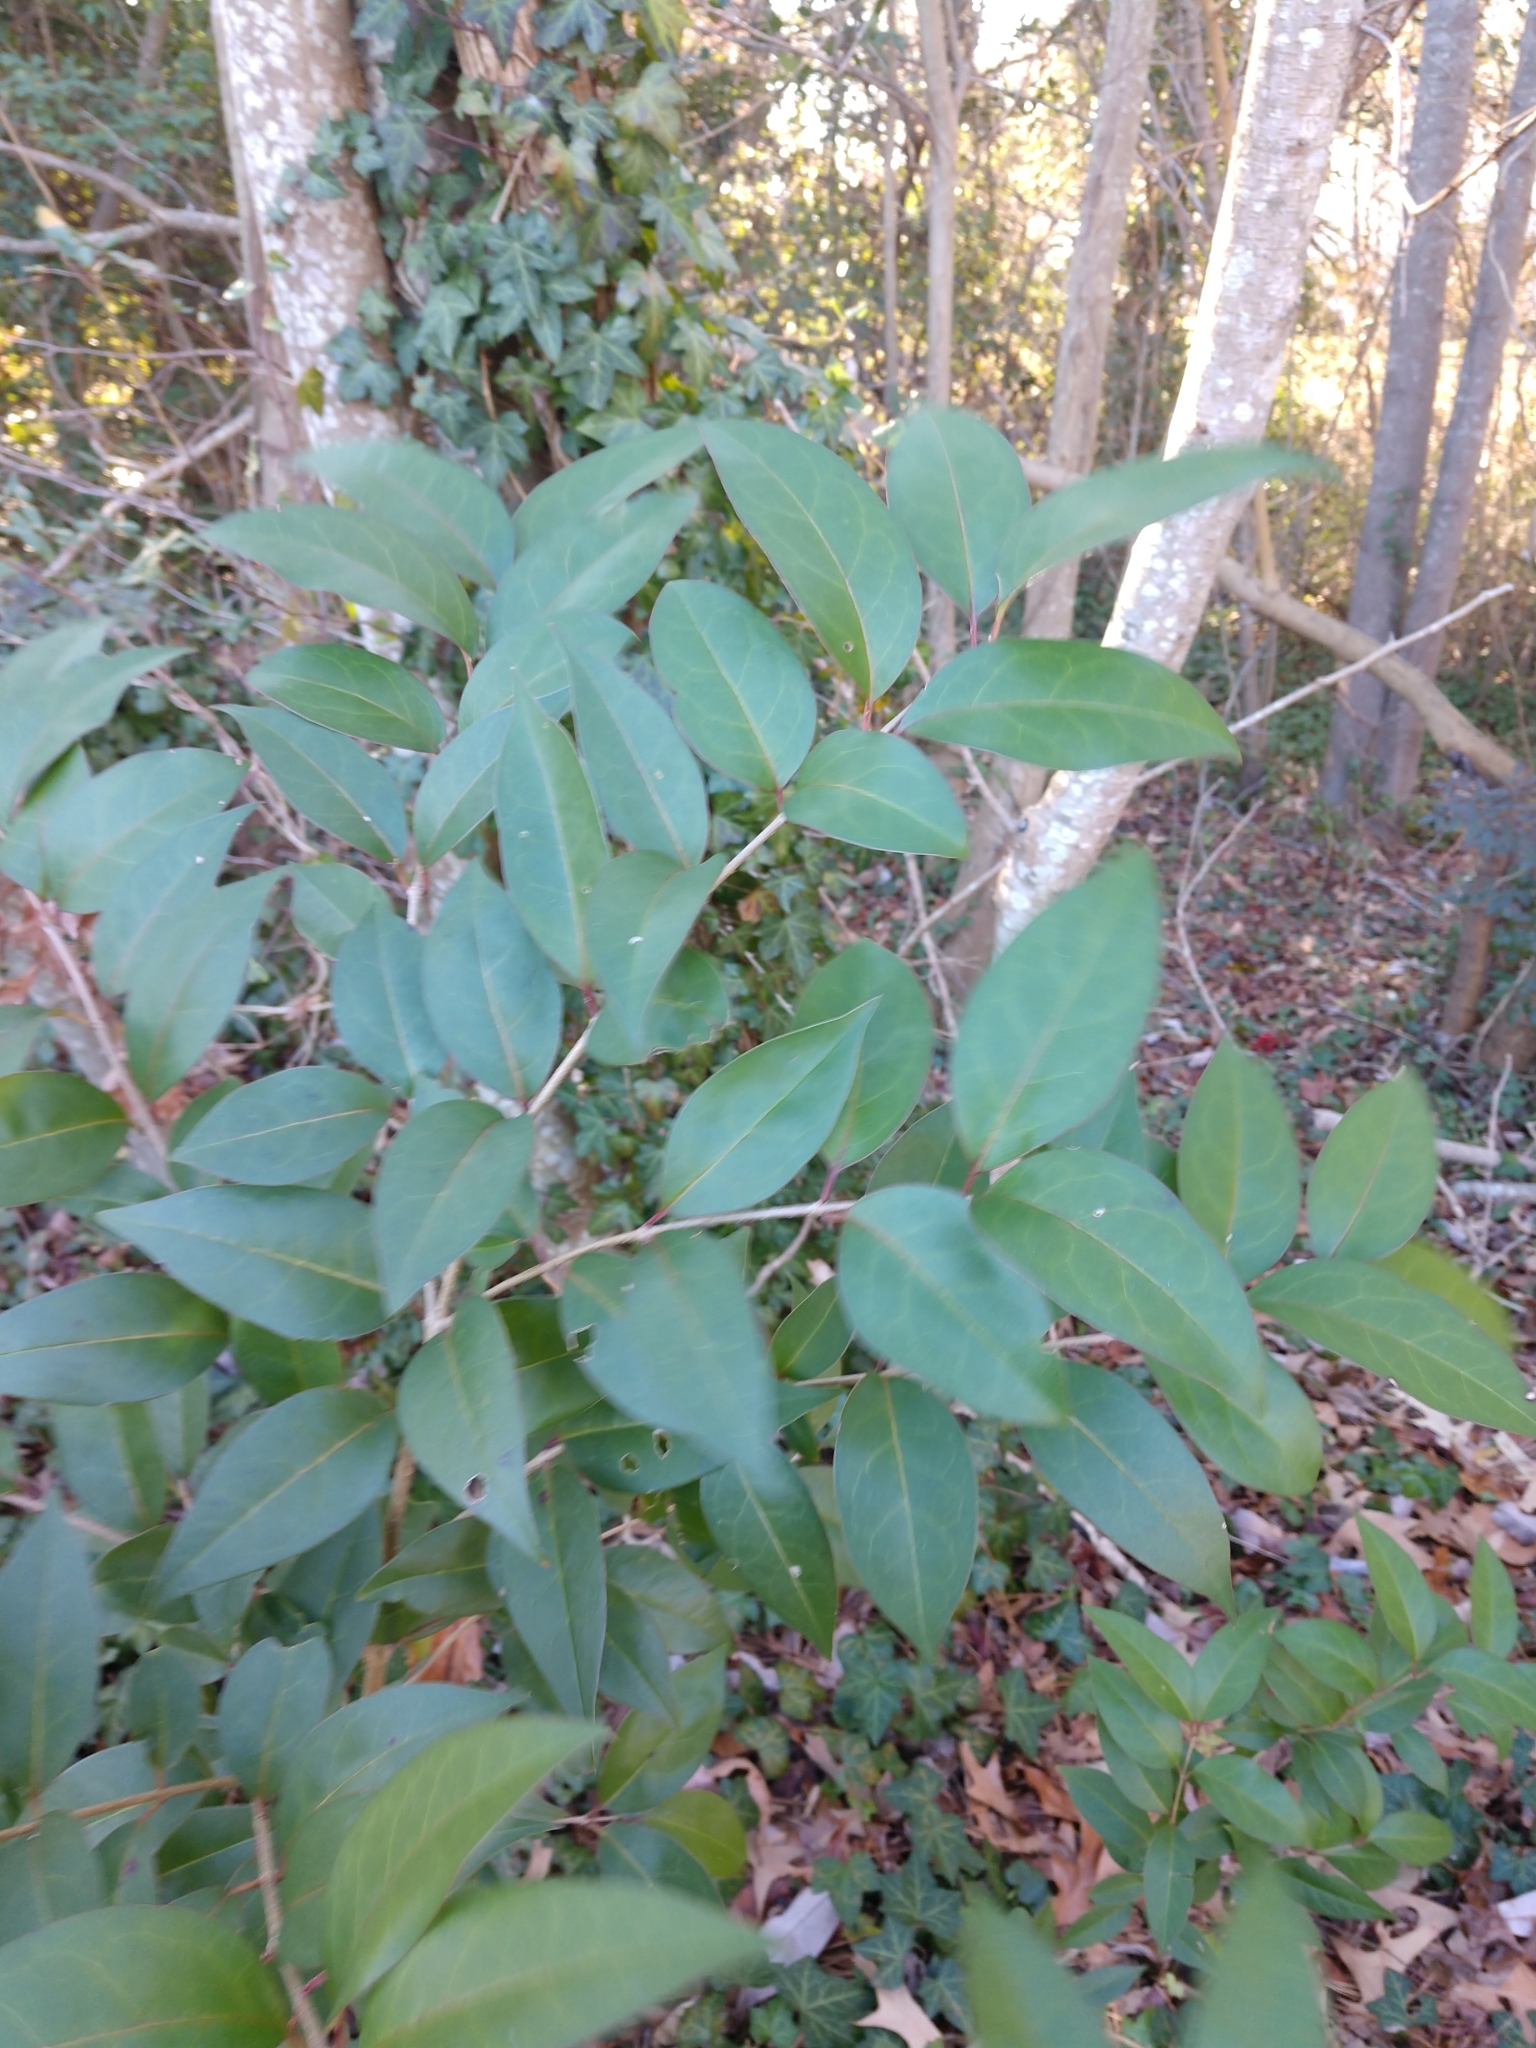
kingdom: Plantae
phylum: Tracheophyta
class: Magnoliopsida
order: Lamiales
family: Oleaceae
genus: Ligustrum
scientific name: Ligustrum lucidum
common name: Glossy privet
